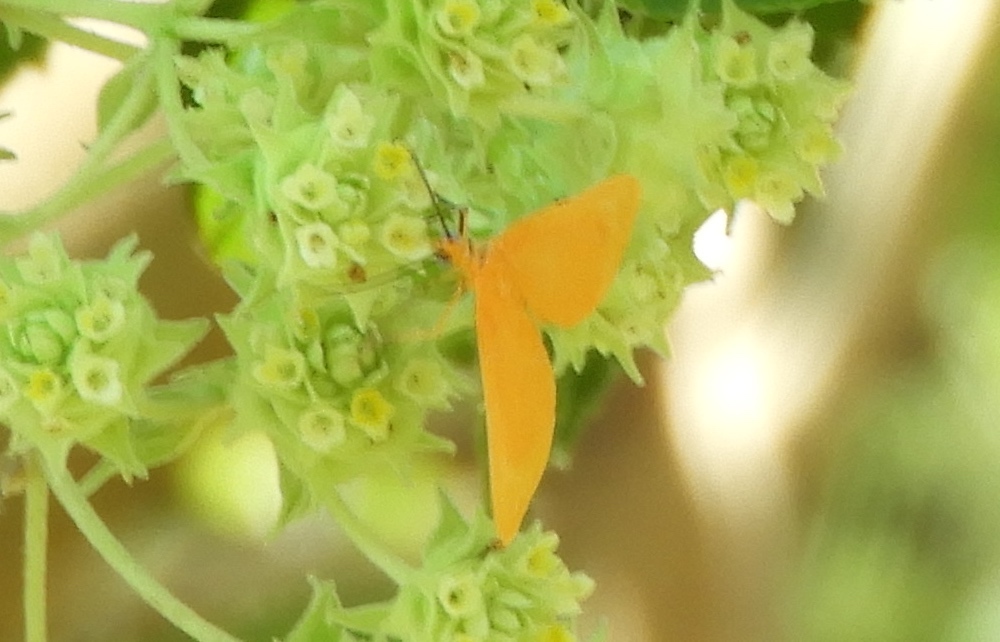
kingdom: Animalia
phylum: Arthropoda
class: Insecta
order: Lepidoptera
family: Geometridae
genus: Eubaphe
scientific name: Eubaphe unicolor
